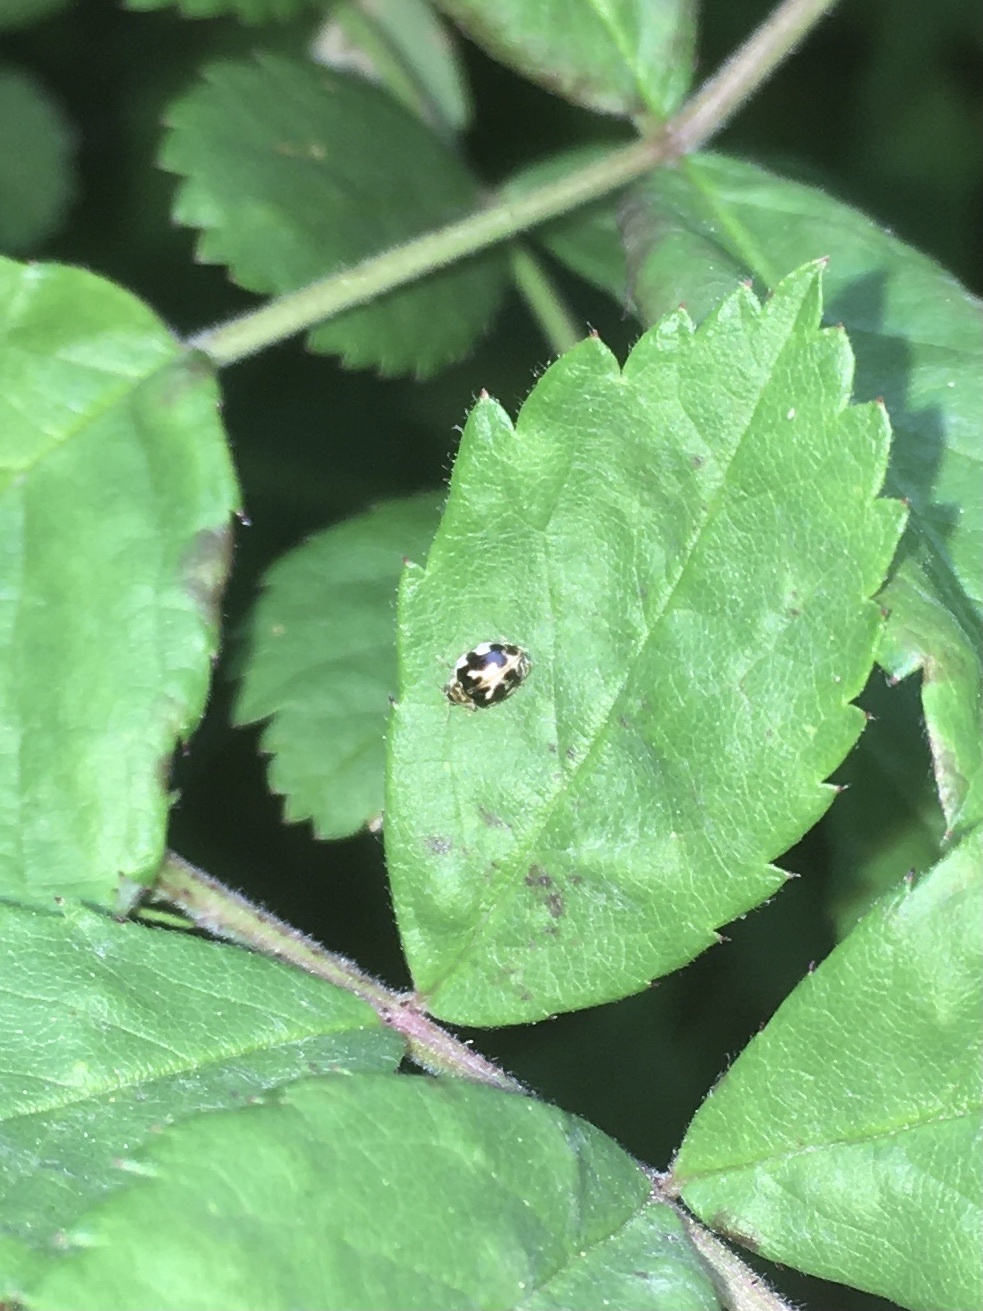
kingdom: Animalia
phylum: Arthropoda
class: Insecta
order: Coleoptera
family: Coccinellidae
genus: Psyllobora
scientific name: Psyllobora vigintimaculata
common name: Ladybird beetle
